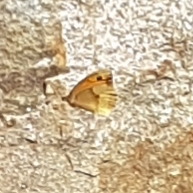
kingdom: Animalia
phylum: Arthropoda
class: Insecta
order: Lepidoptera
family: Nymphalidae
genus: Maniola
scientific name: Maniola jurtina
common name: Meadow brown
